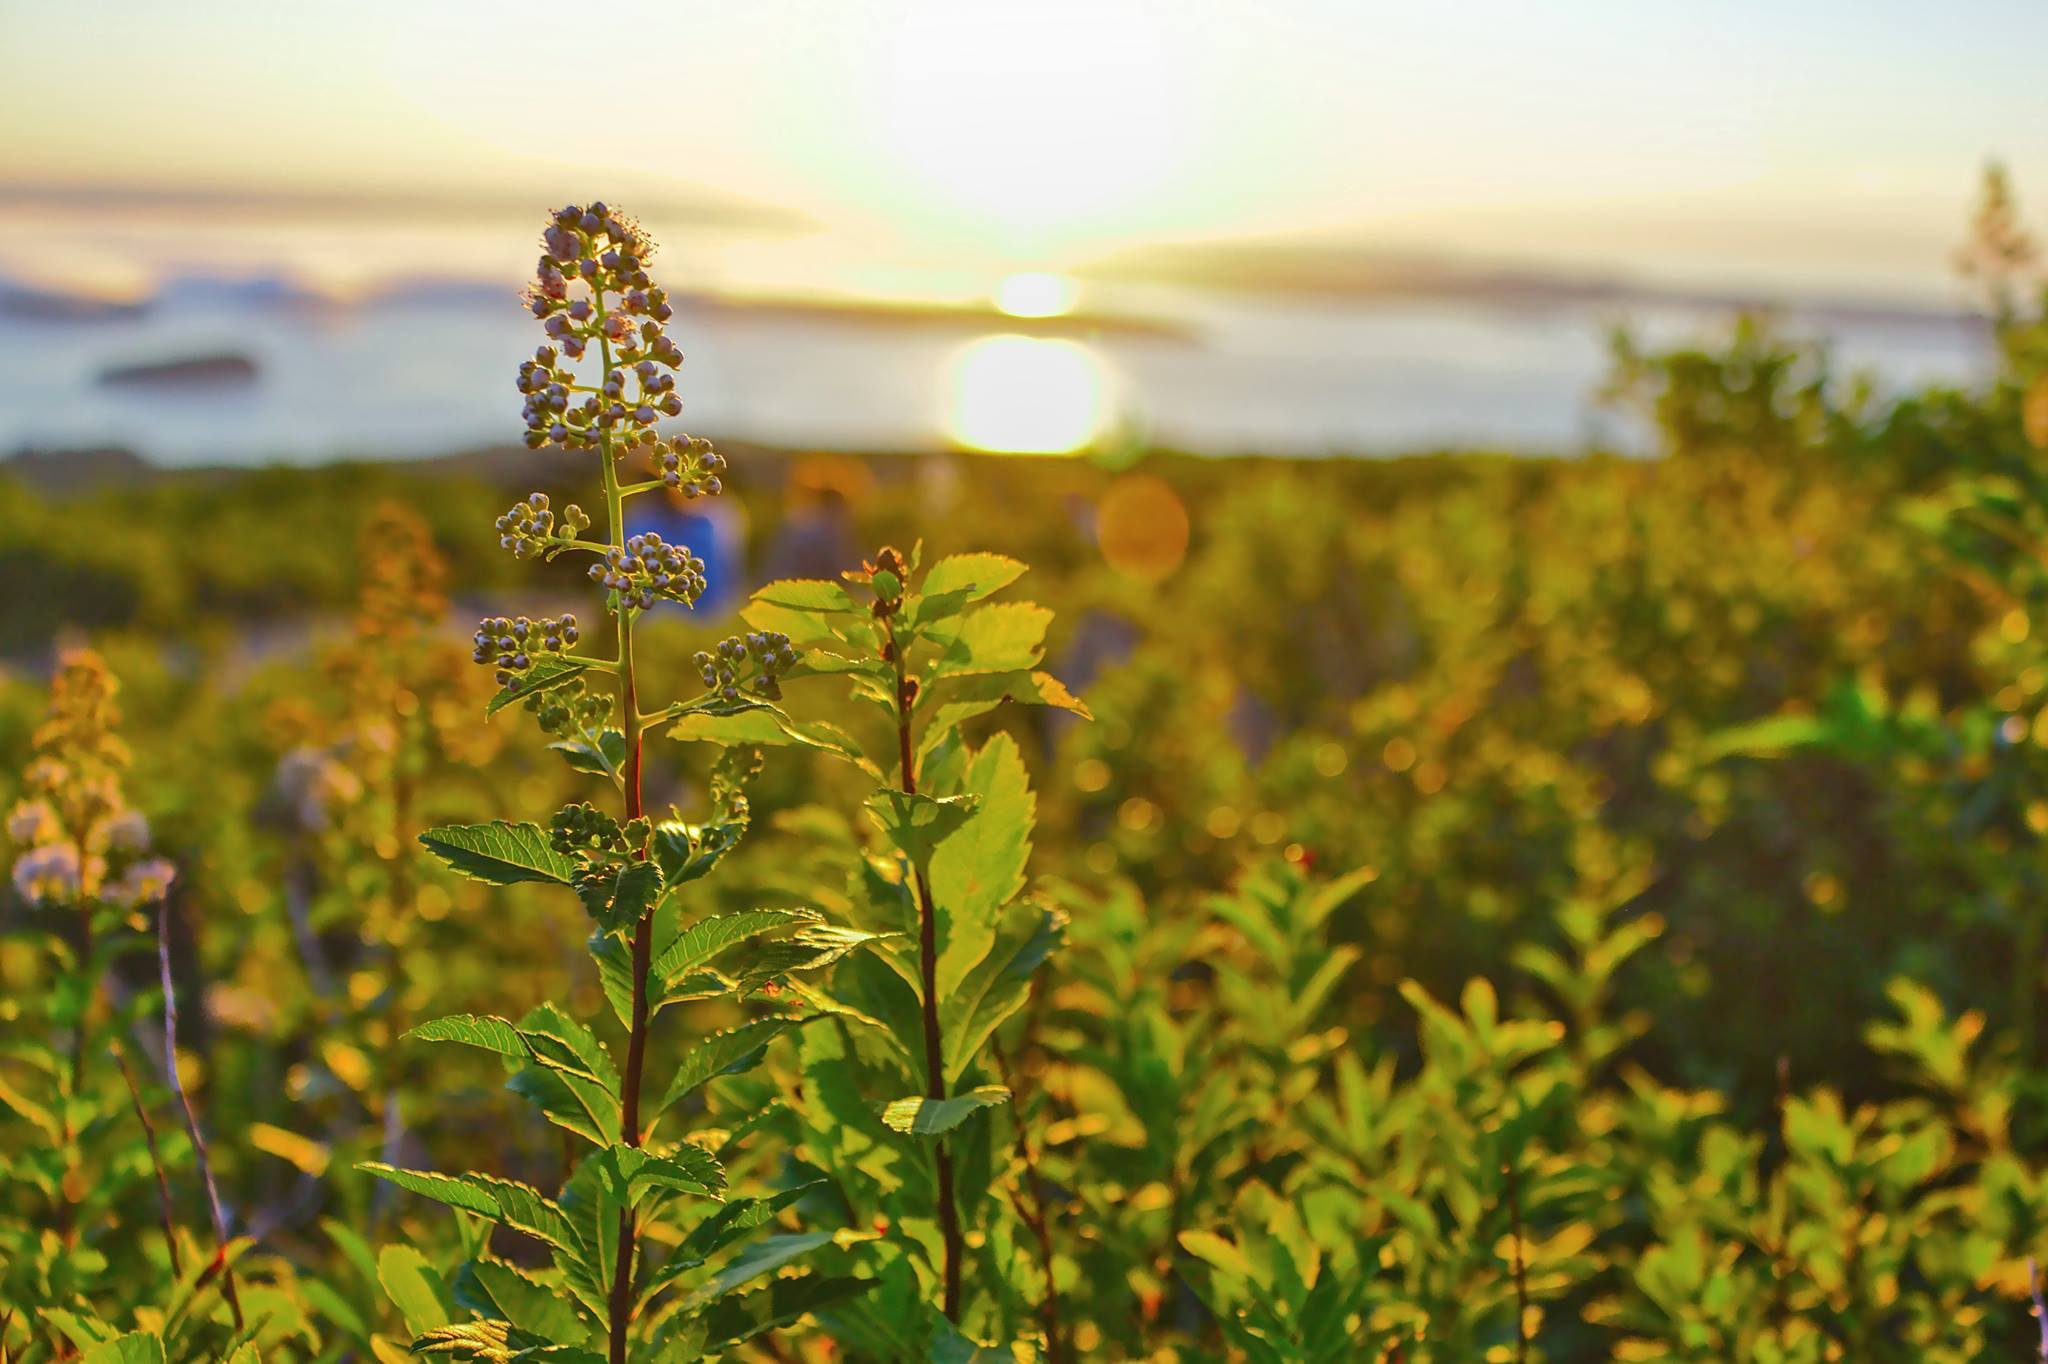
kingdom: Plantae
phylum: Tracheophyta
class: Magnoliopsida
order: Rosales
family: Rosaceae
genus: Spiraea
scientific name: Spiraea alba
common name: Pale bridewort
